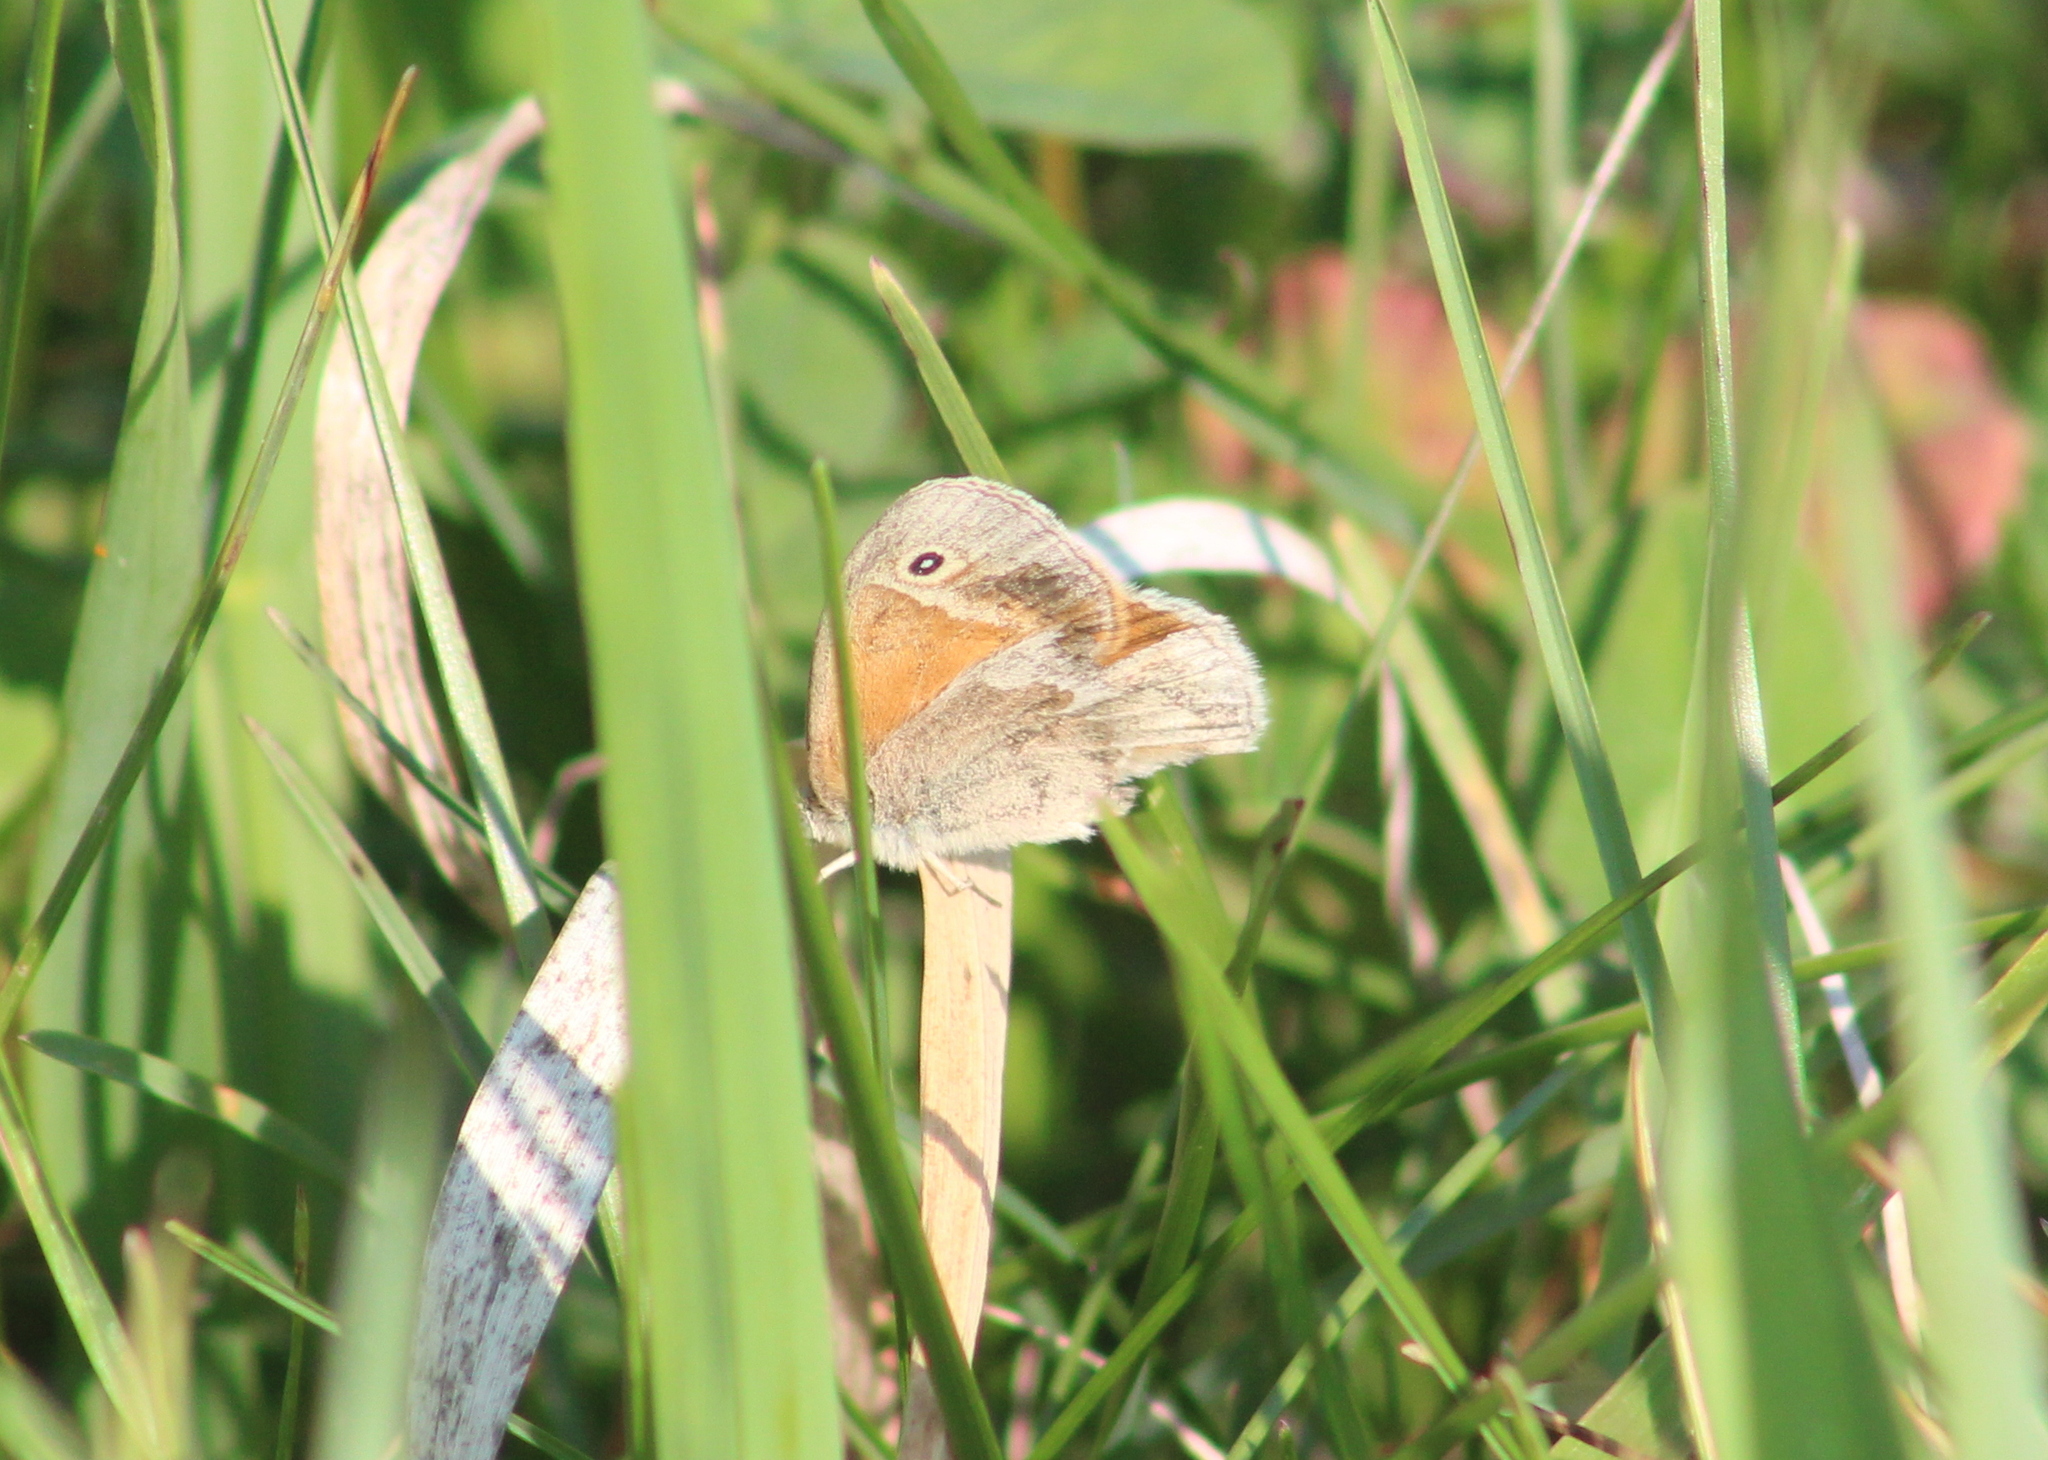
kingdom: Animalia
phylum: Arthropoda
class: Insecta
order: Lepidoptera
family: Nymphalidae
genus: Coenonympha
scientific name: Coenonympha california
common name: Common ringlet
